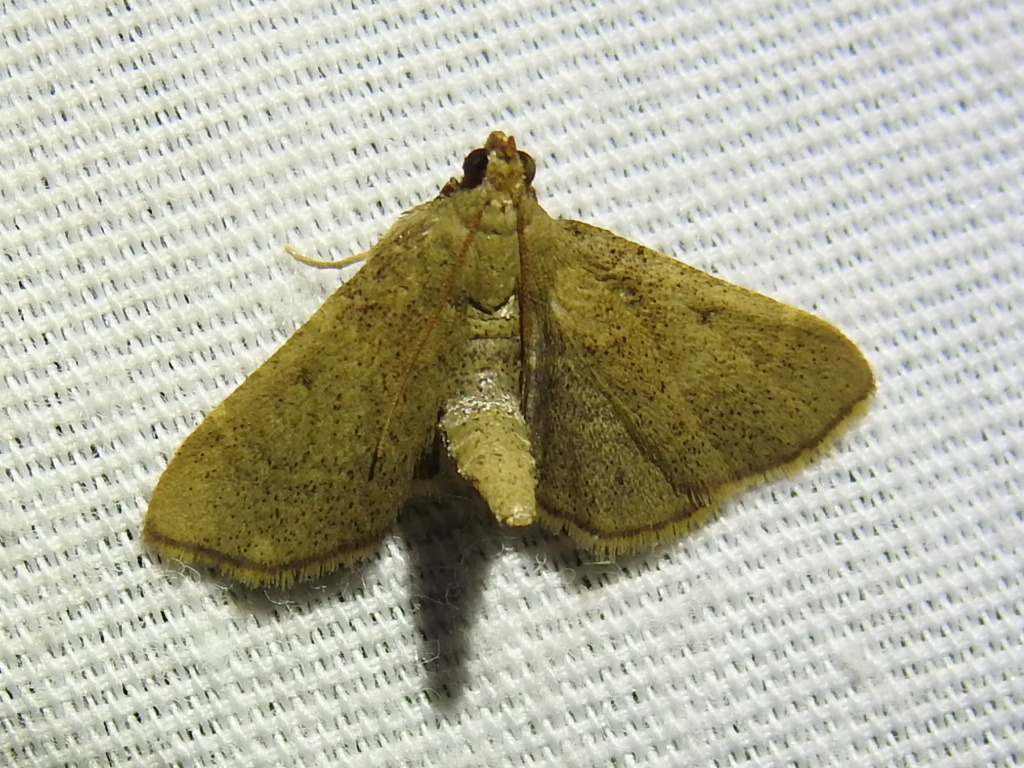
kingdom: Animalia
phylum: Arthropoda
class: Insecta
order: Lepidoptera
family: Pyralidae
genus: Hypsopygia
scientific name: Hypsopygia nostralis
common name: Southern hayworm moth
